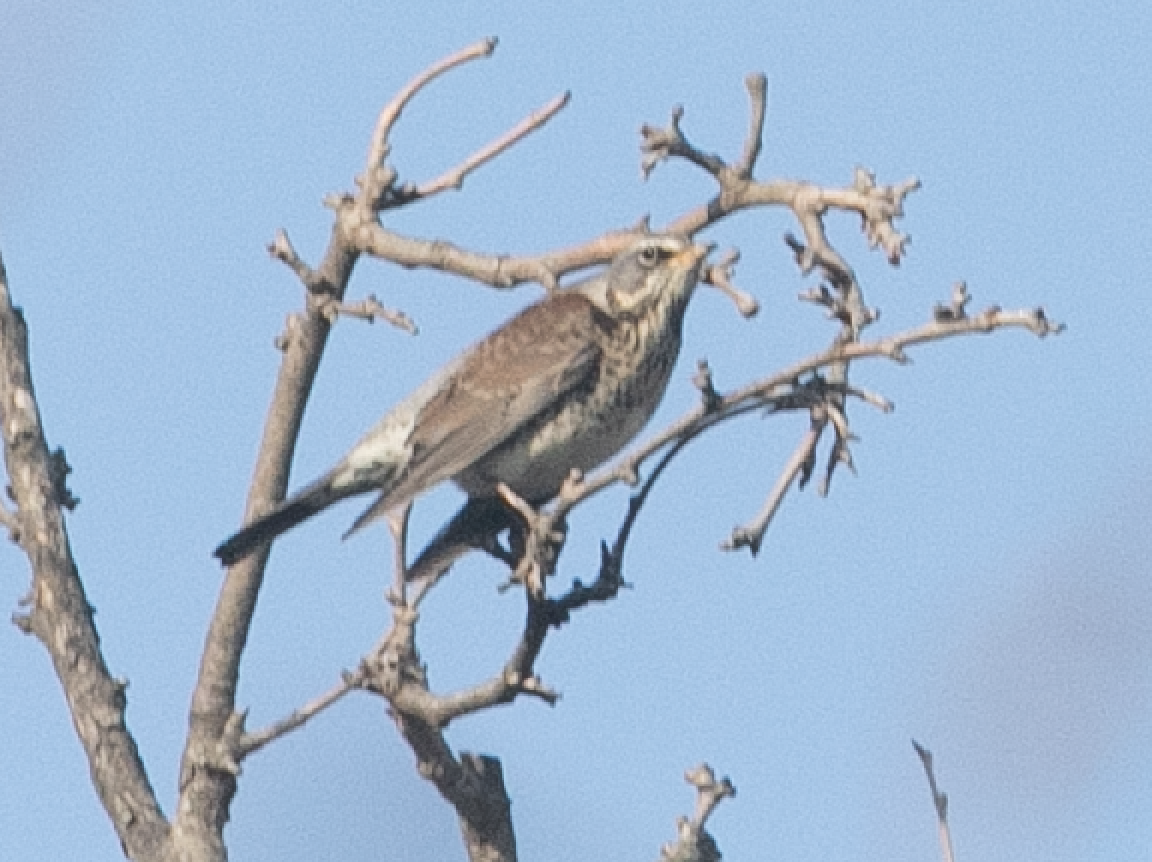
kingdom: Animalia
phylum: Chordata
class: Aves
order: Passeriformes
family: Turdidae
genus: Turdus
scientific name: Turdus pilaris
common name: Fieldfare
